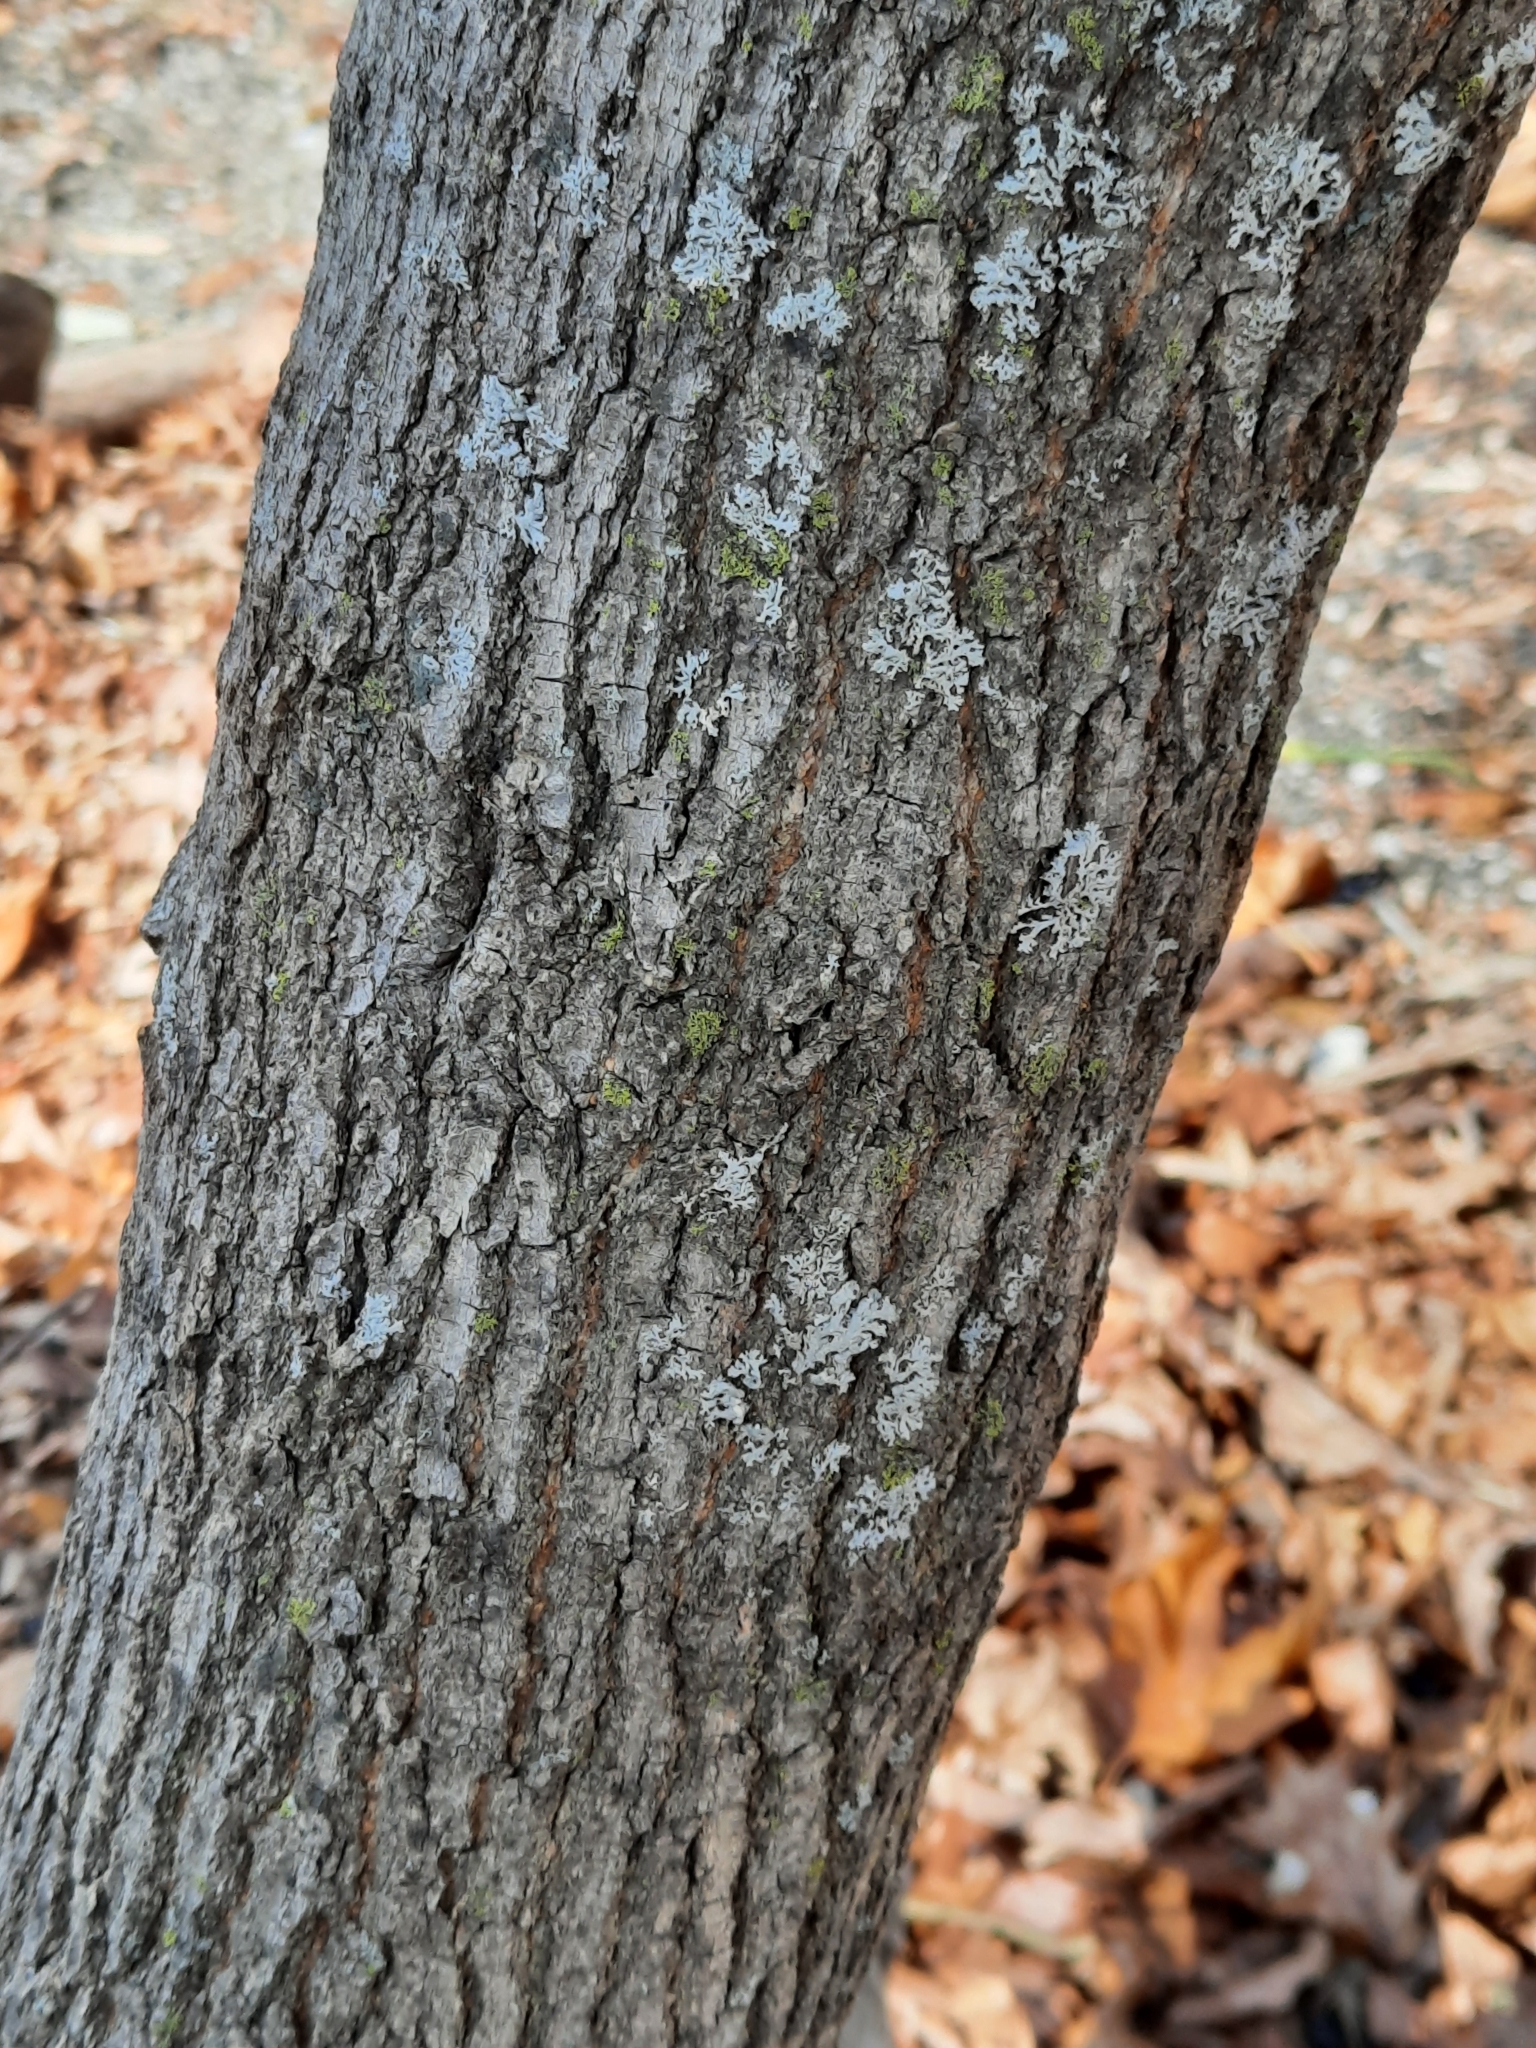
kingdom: Plantae
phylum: Tracheophyta
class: Magnoliopsida
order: Rosales
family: Cannabaceae
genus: Celtis
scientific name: Celtis occidentalis
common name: Common hackberry
